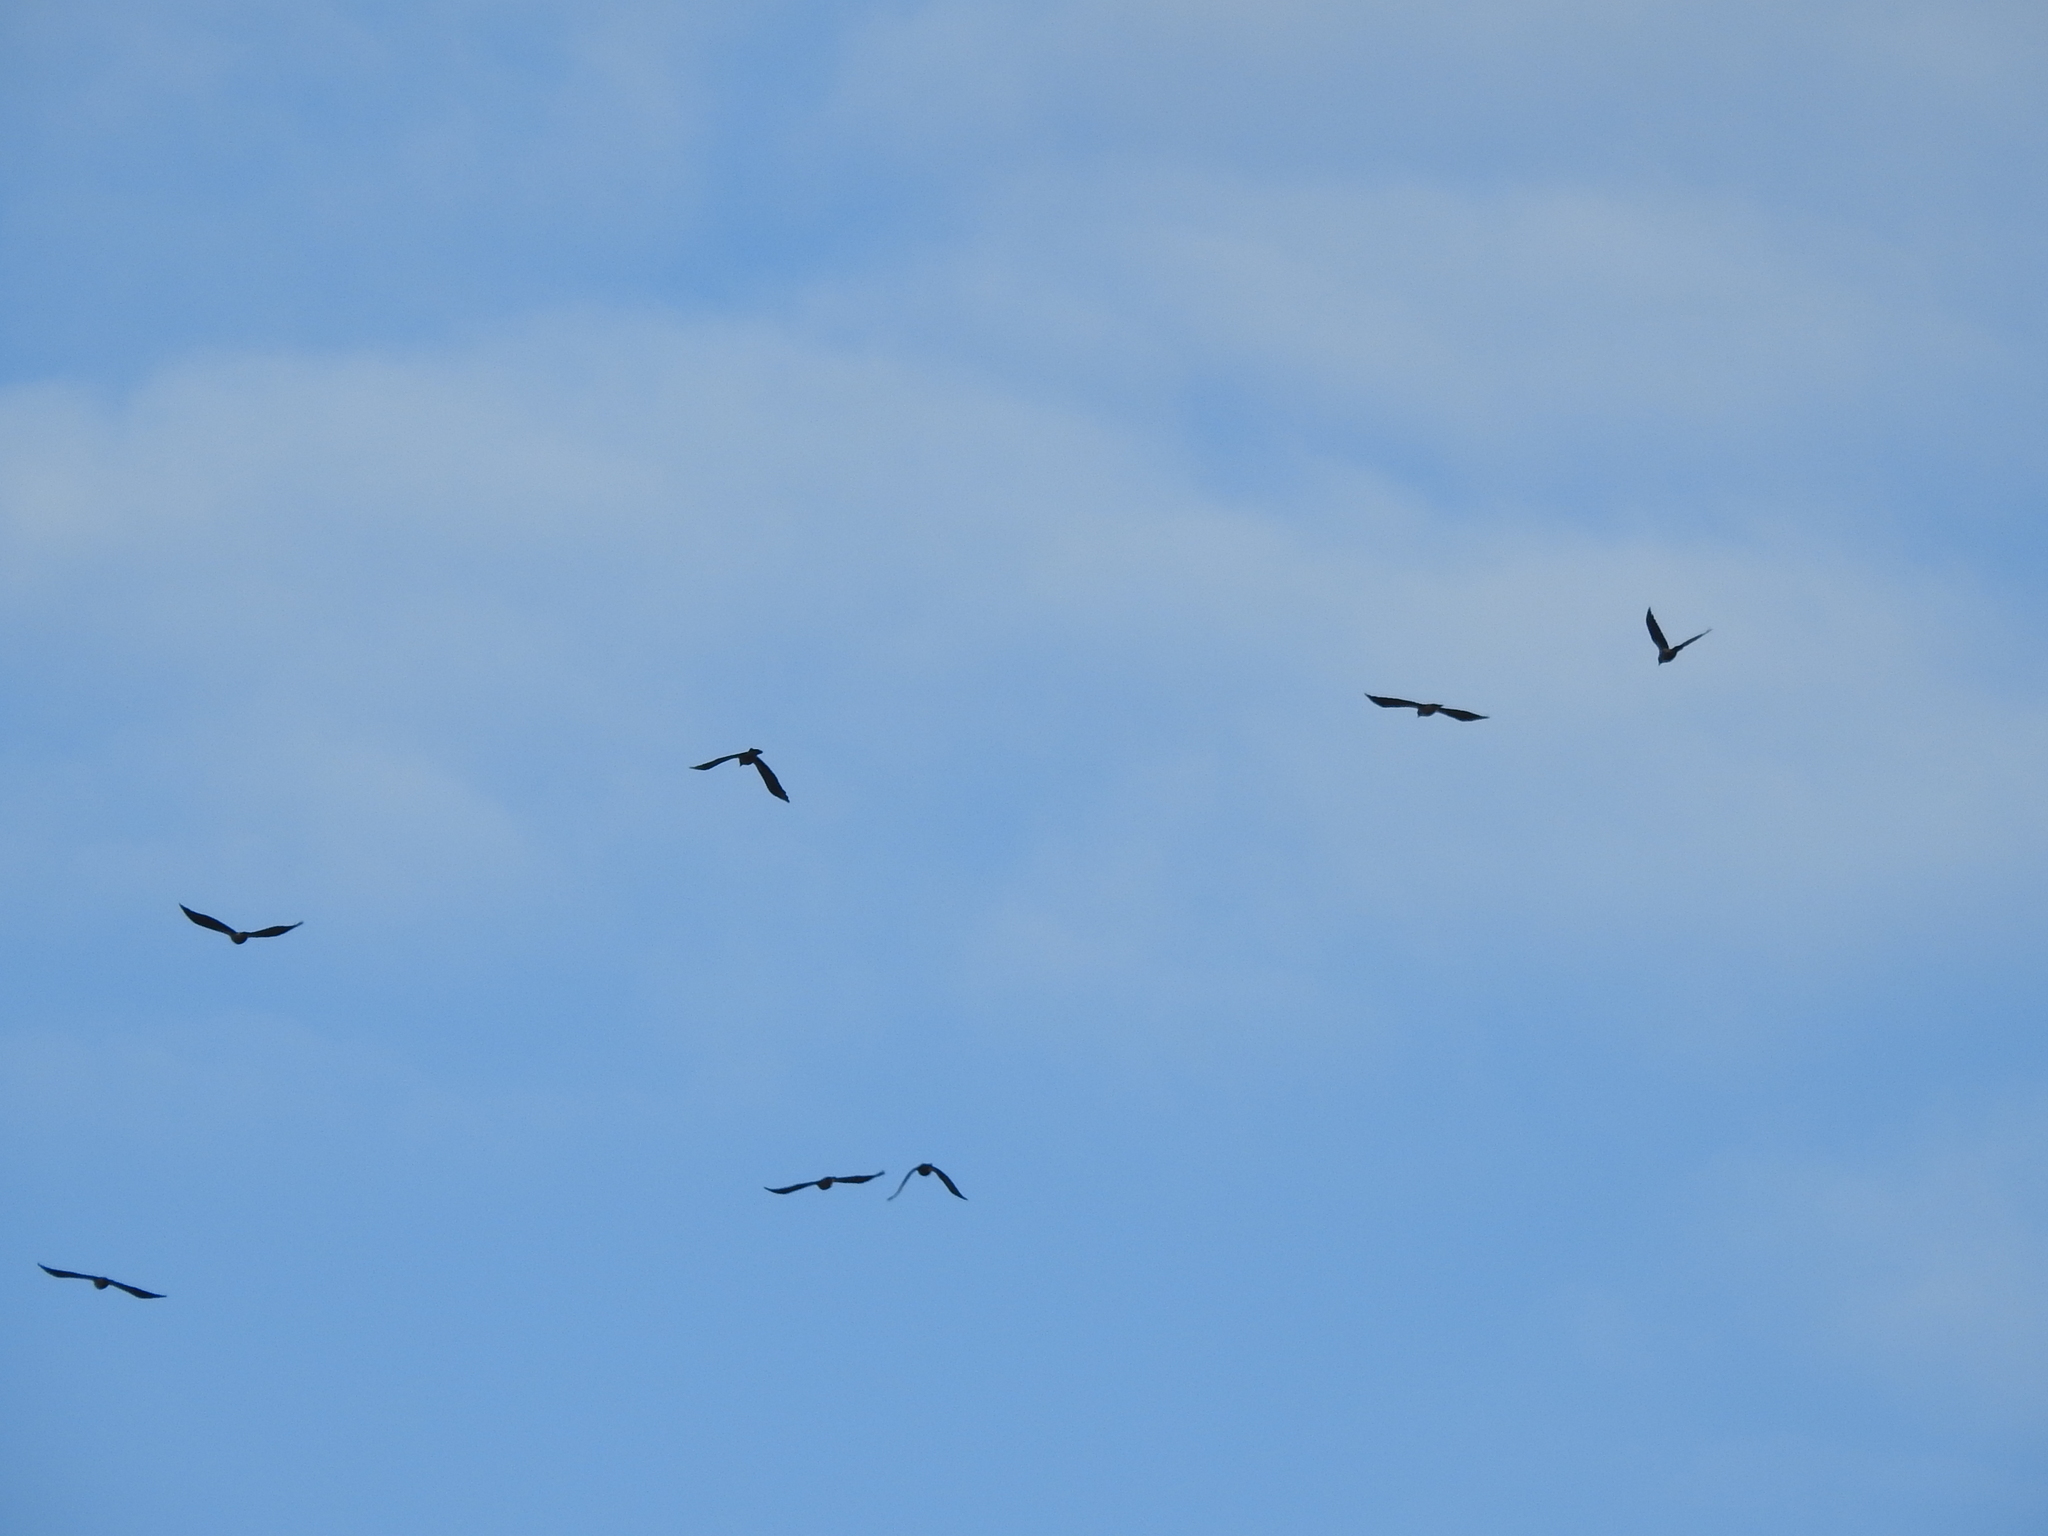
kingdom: Animalia
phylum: Chordata
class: Aves
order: Passeriformes
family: Corvidae
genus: Coloeus
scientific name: Coloeus monedula
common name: Western jackdaw
